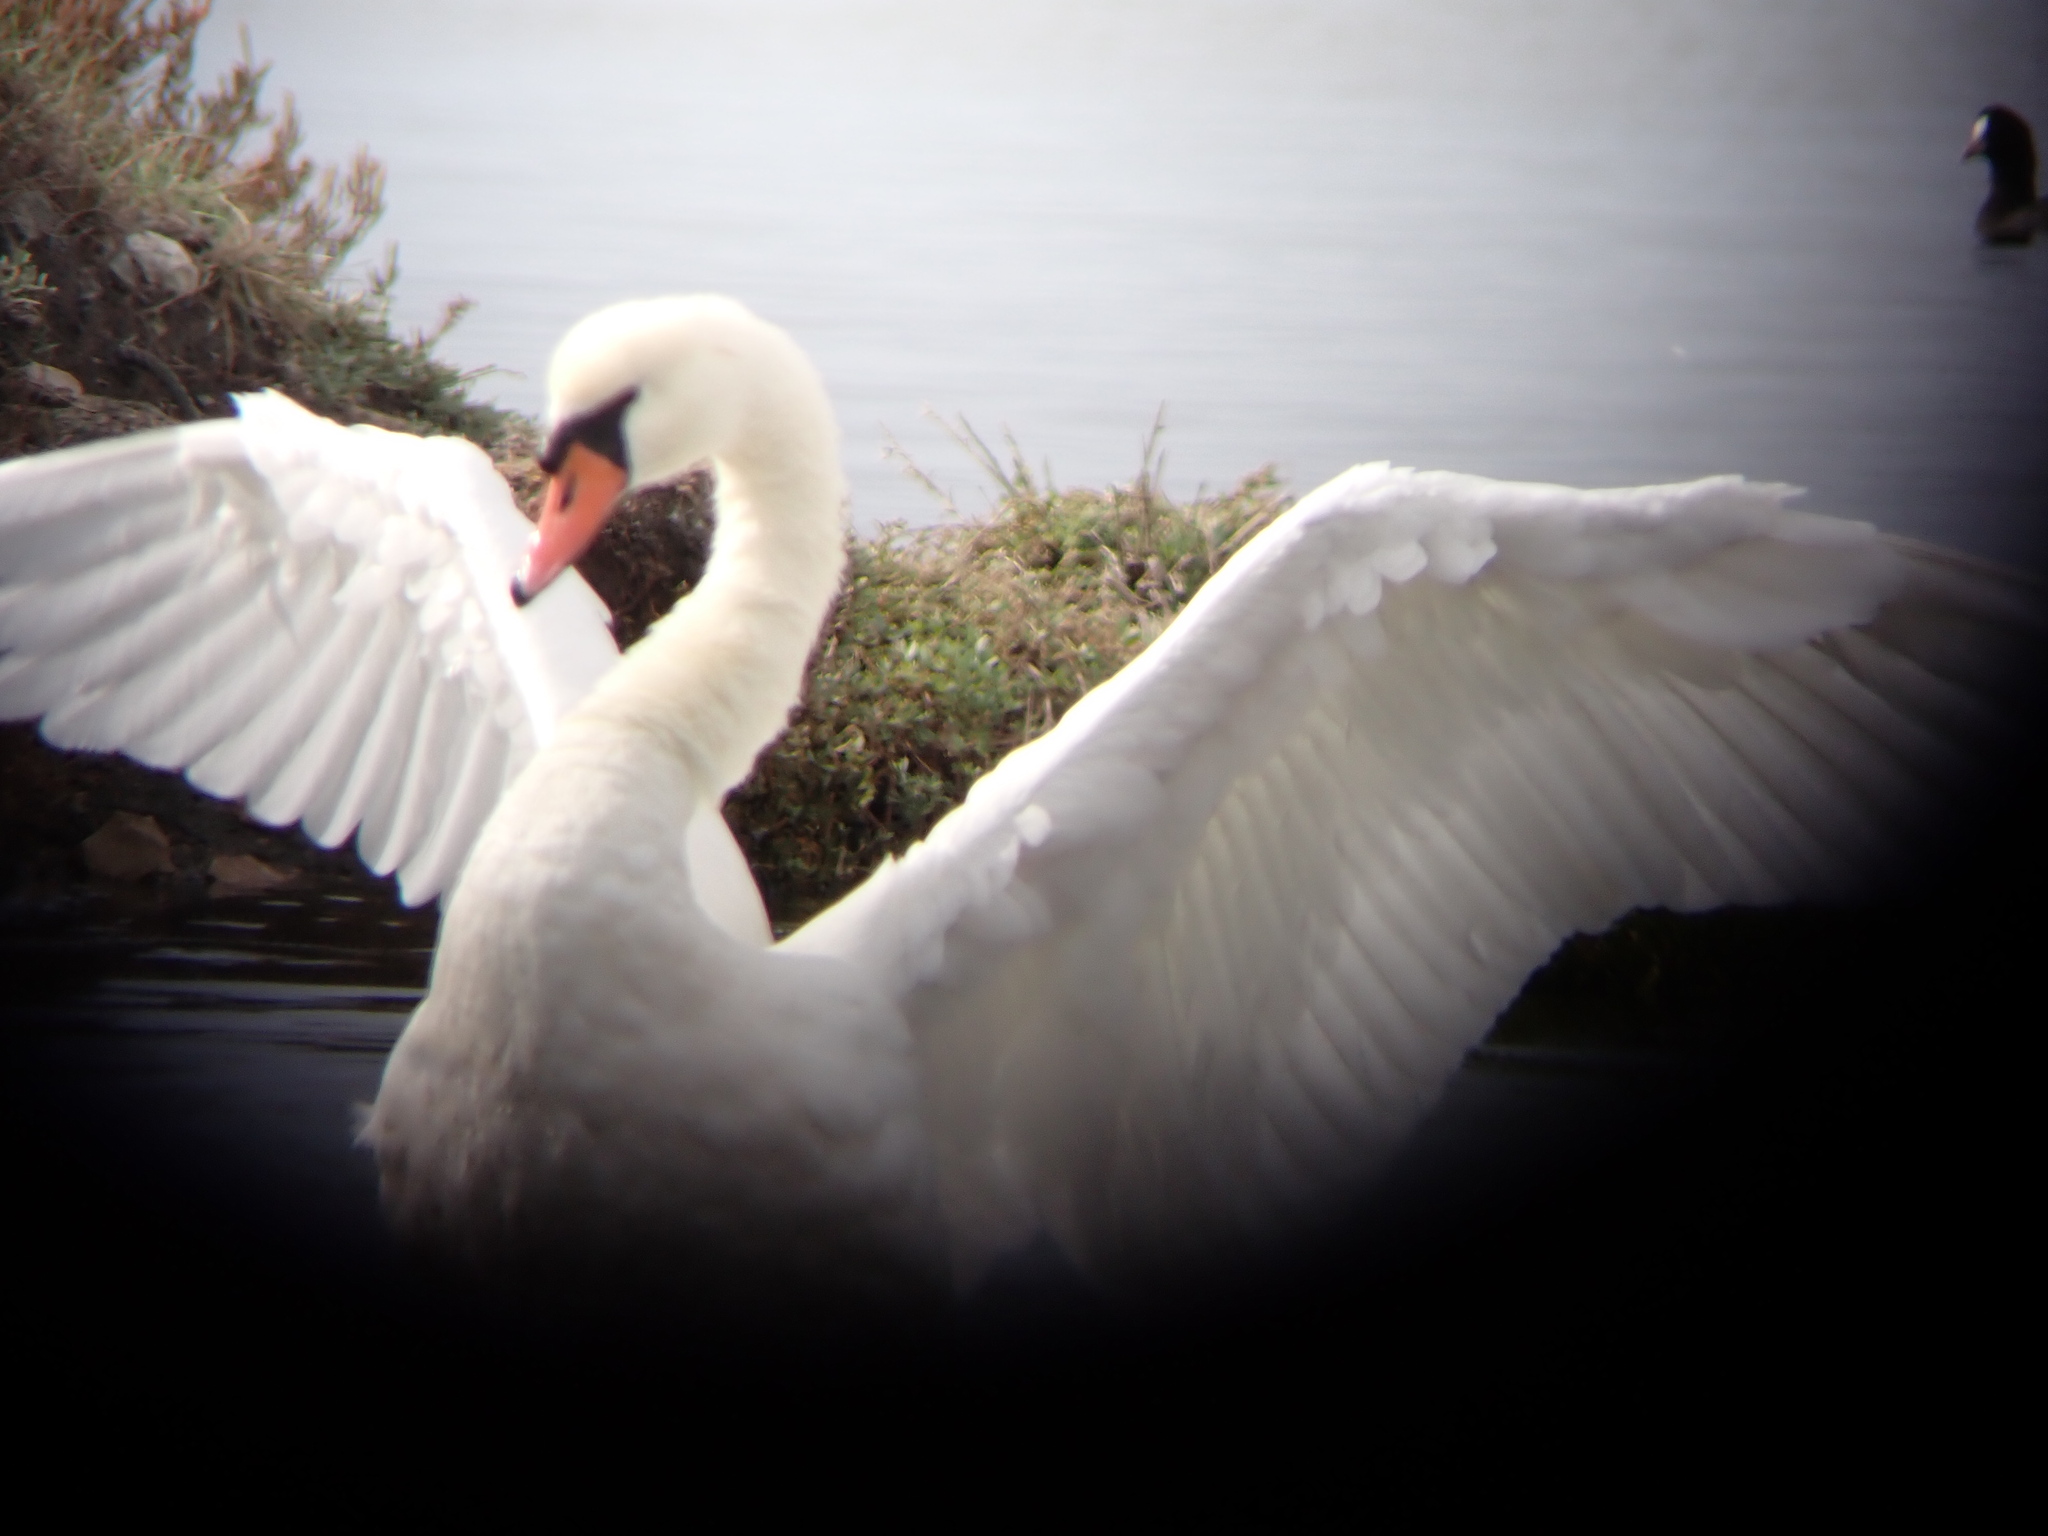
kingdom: Animalia
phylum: Chordata
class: Aves
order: Anseriformes
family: Anatidae
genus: Cygnus
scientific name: Cygnus olor
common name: Mute swan
